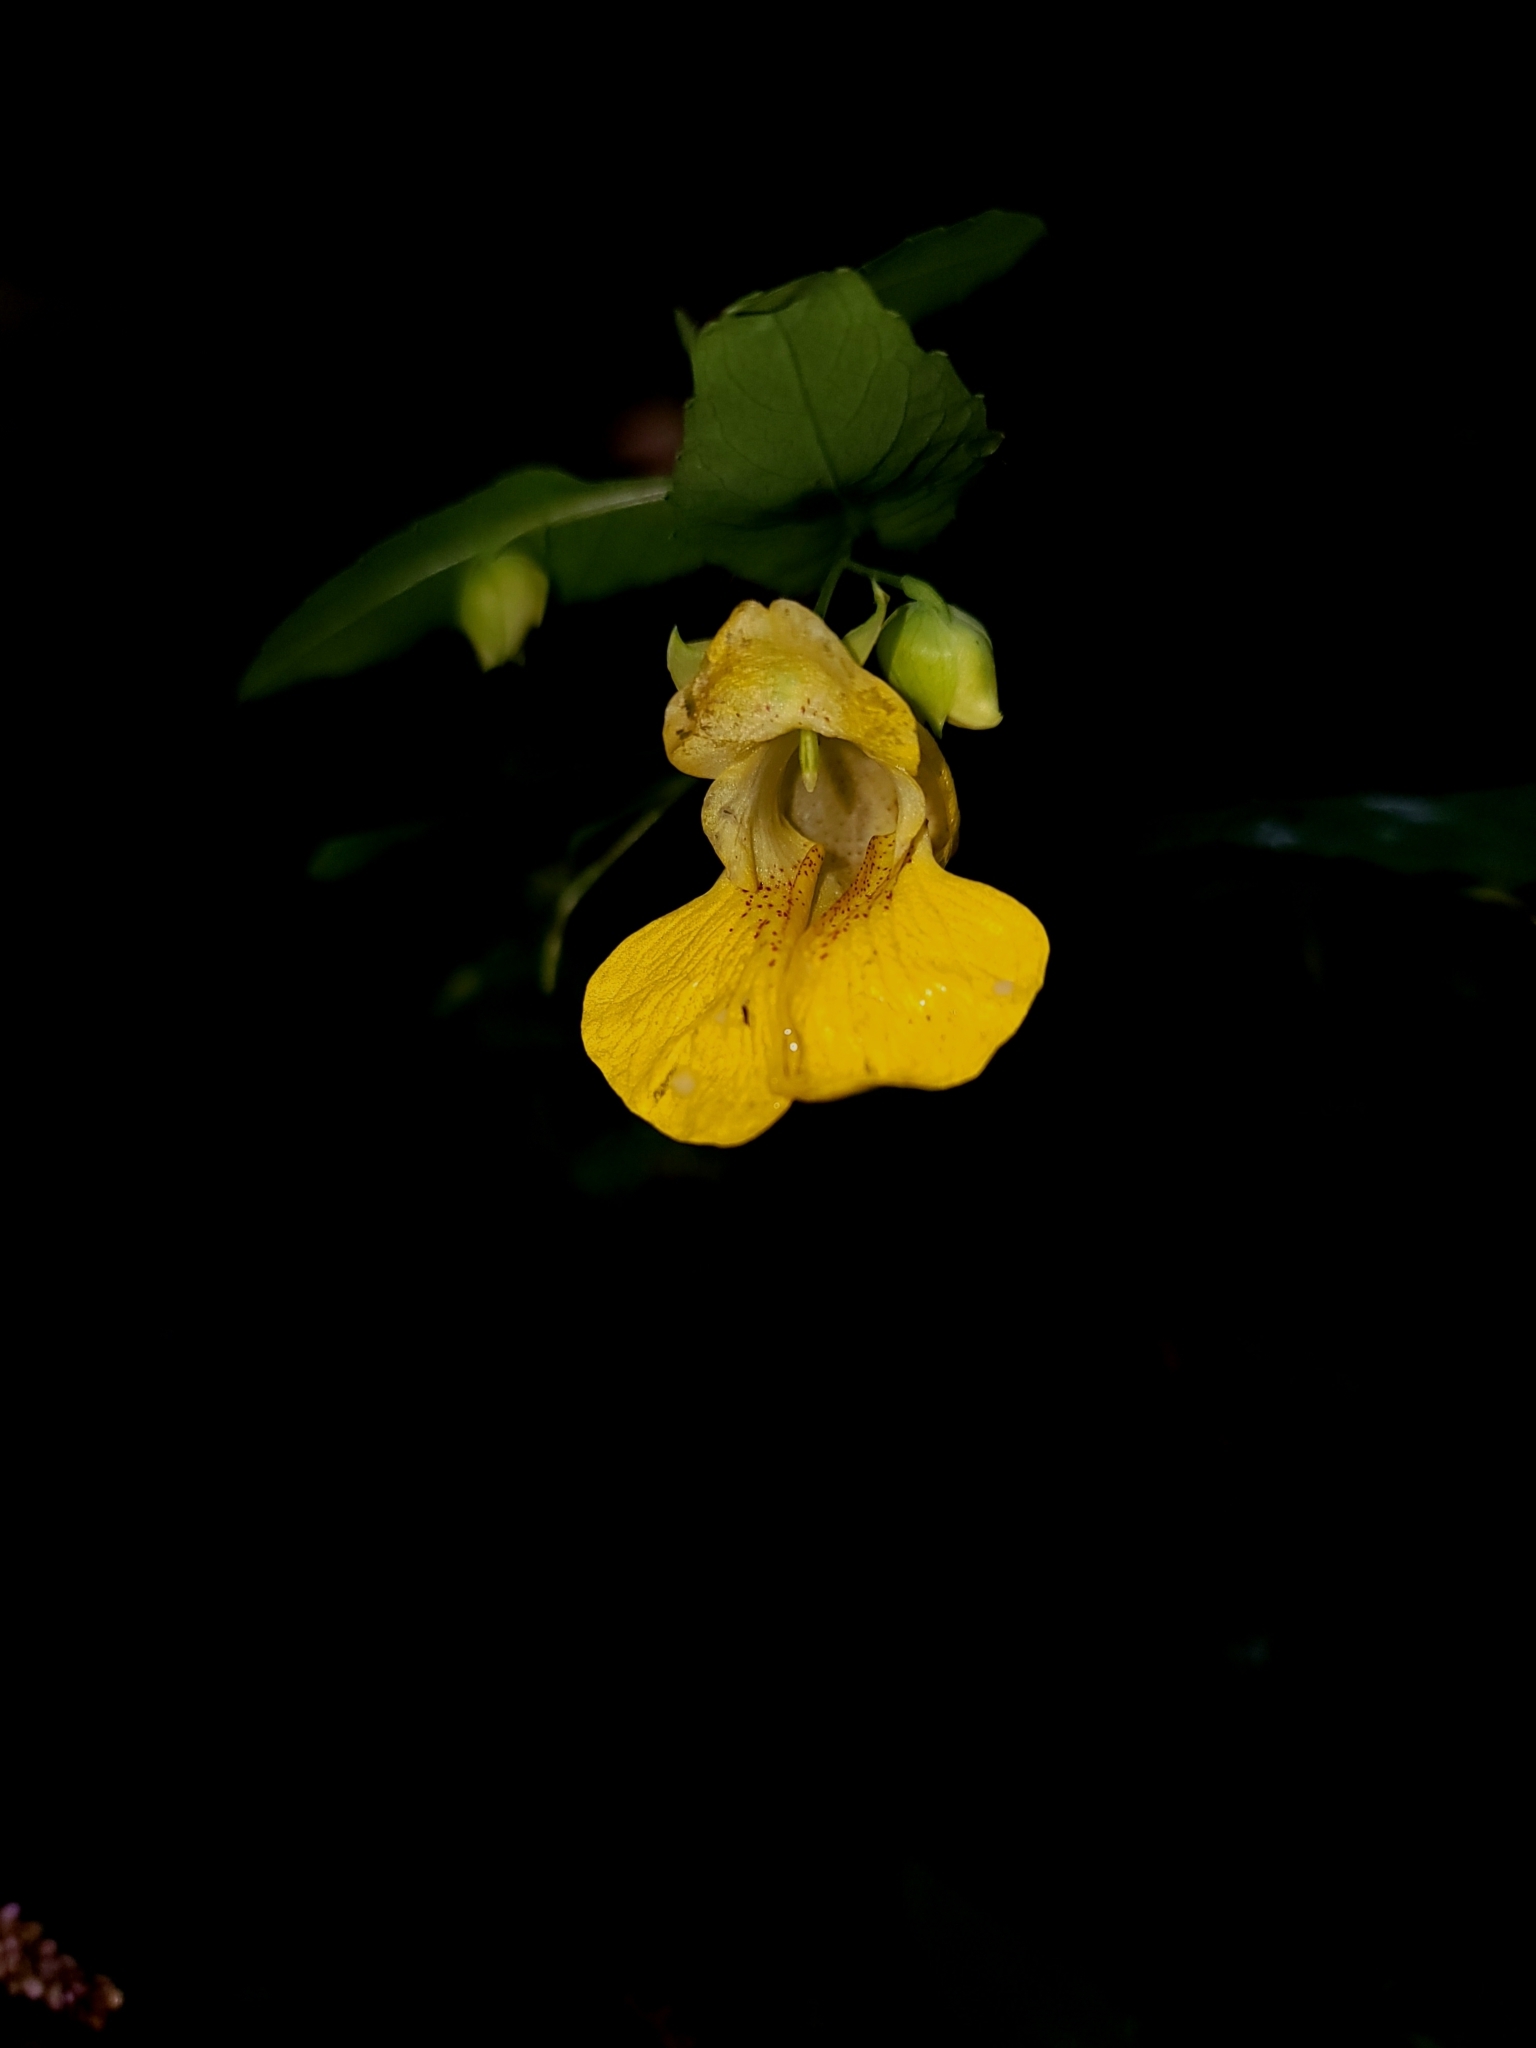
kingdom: Plantae
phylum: Tracheophyta
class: Magnoliopsida
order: Ericales
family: Balsaminaceae
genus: Impatiens
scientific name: Impatiens pallida
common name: Pale snapweed
